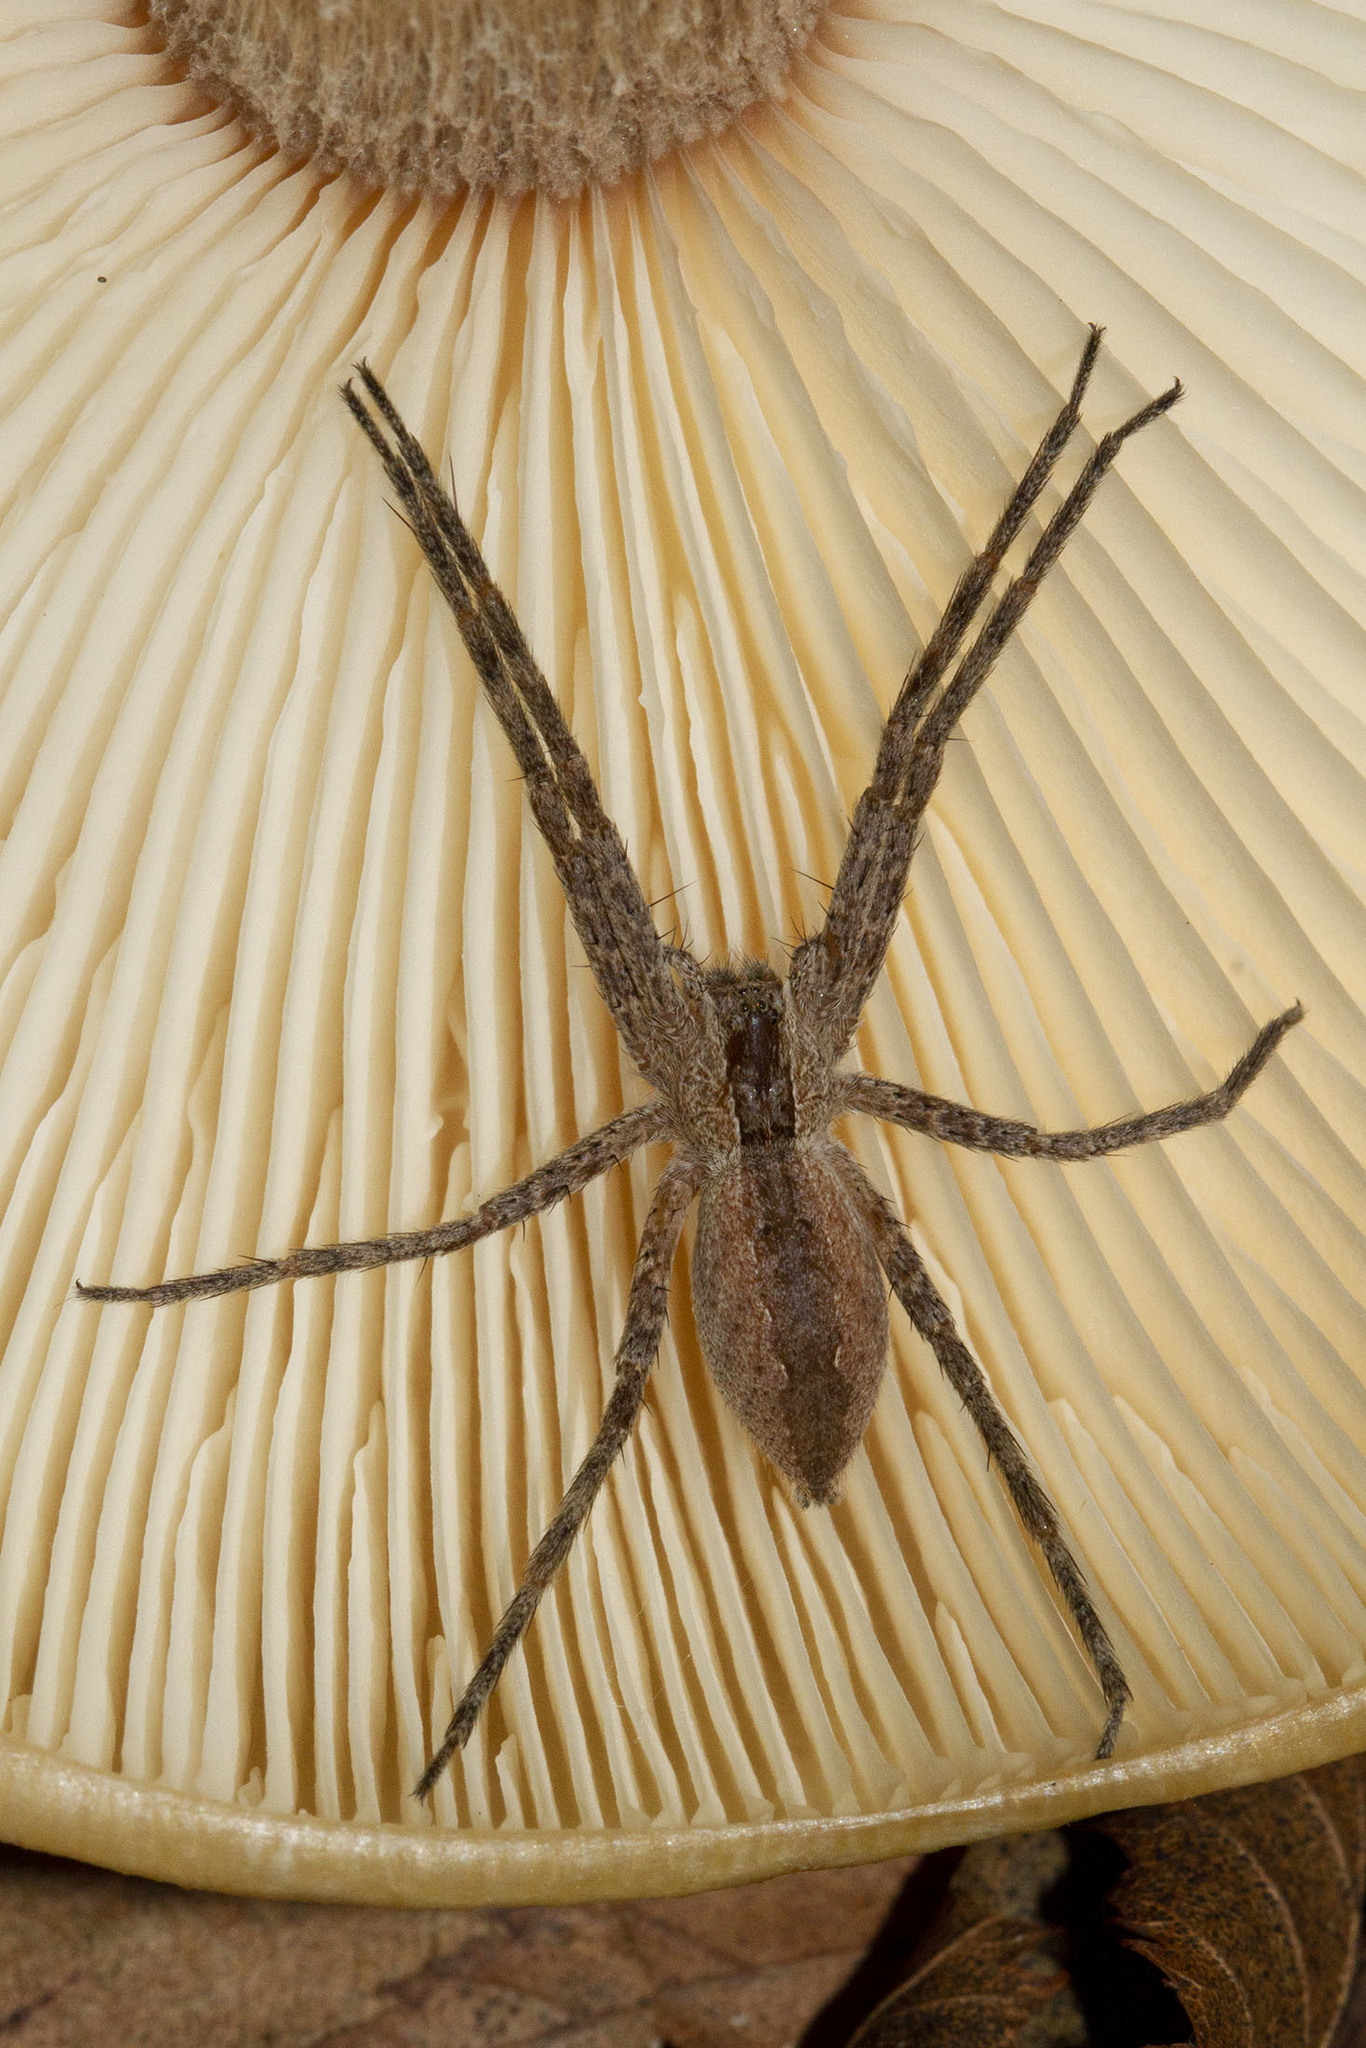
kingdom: Animalia
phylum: Arthropoda
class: Arachnida
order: Araneae
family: Pisauridae
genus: Pisaurina
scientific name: Pisaurina mira
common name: American nursery web spider
